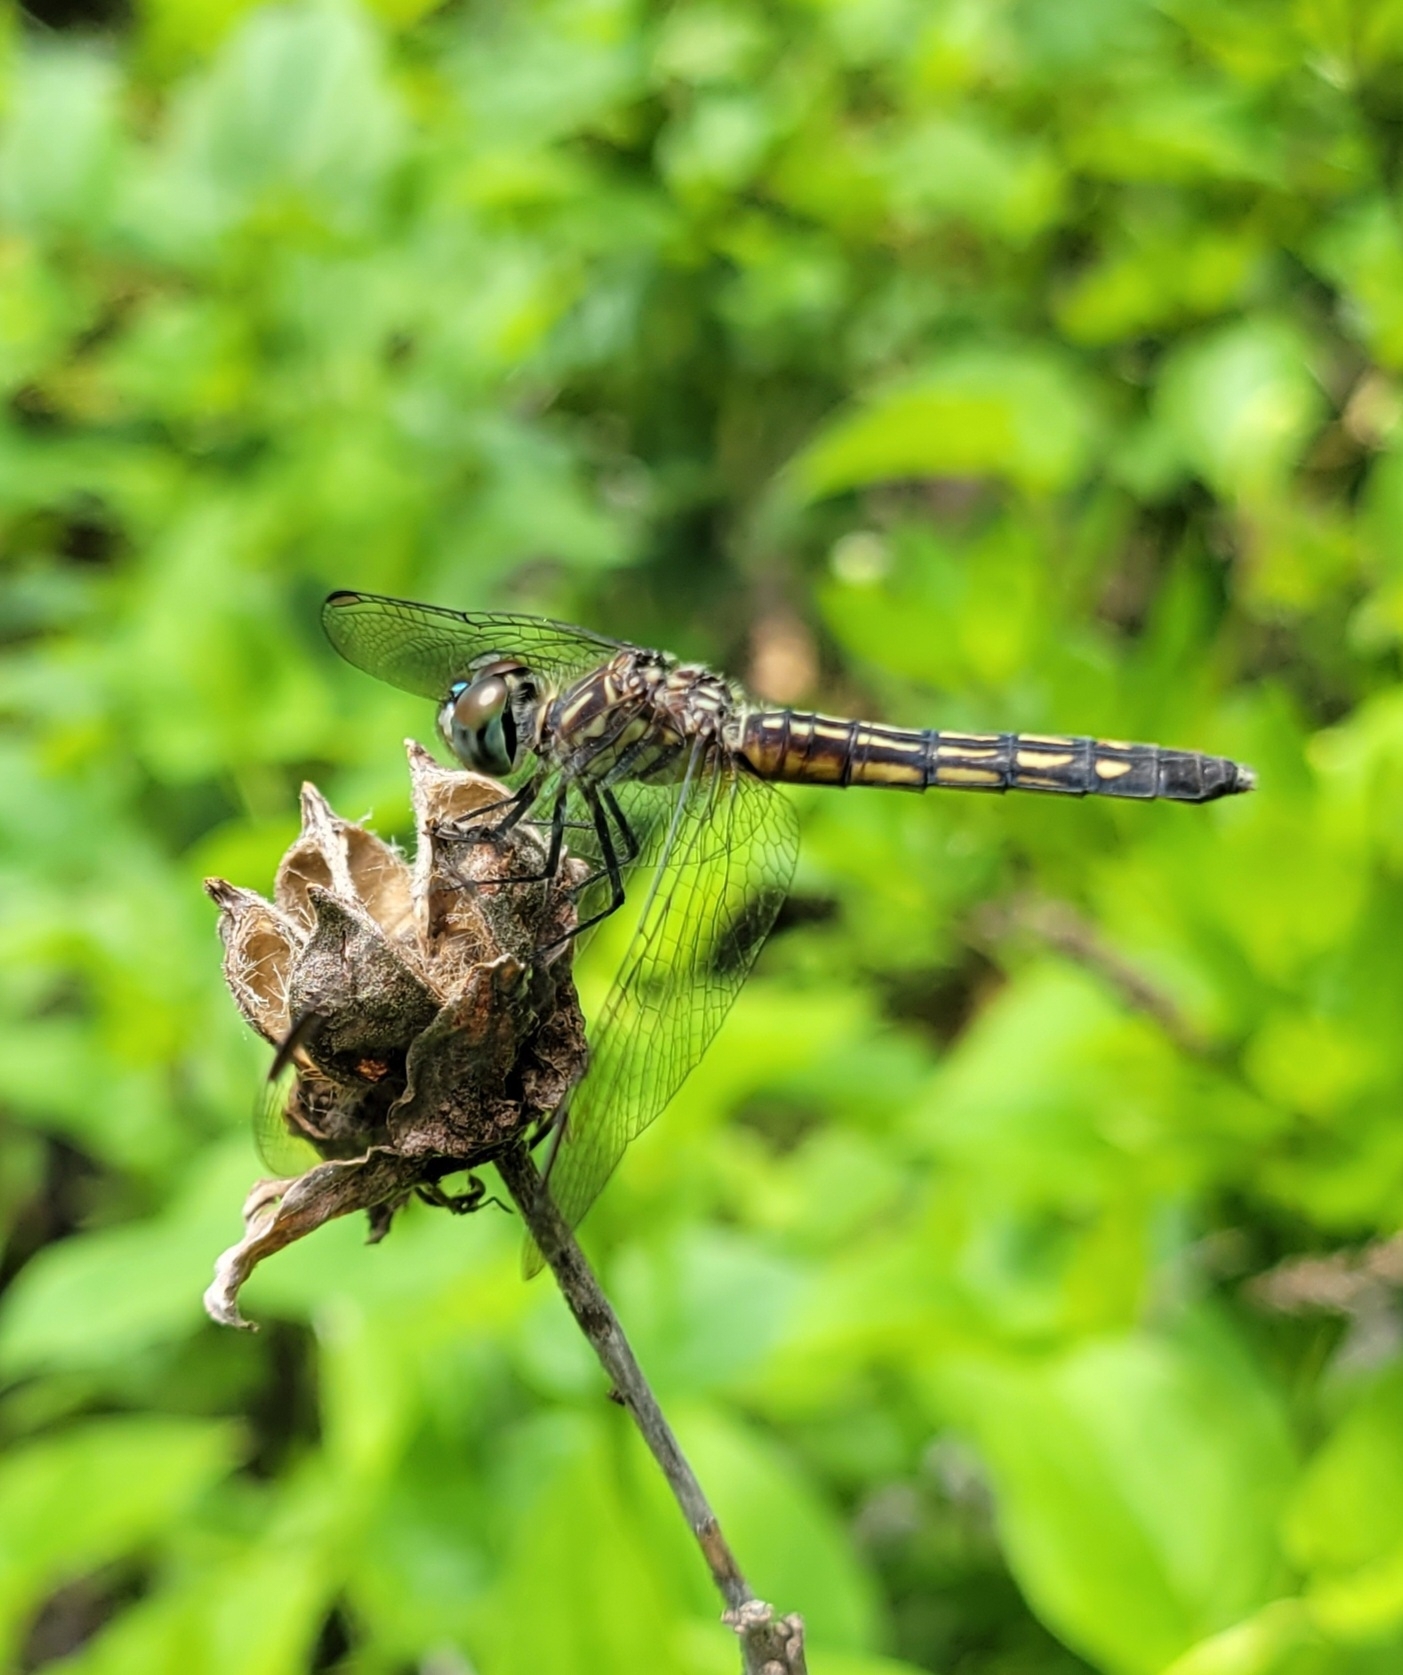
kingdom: Animalia
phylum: Arthropoda
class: Insecta
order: Odonata
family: Libellulidae
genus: Pachydiplax
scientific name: Pachydiplax longipennis
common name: Blue dasher
